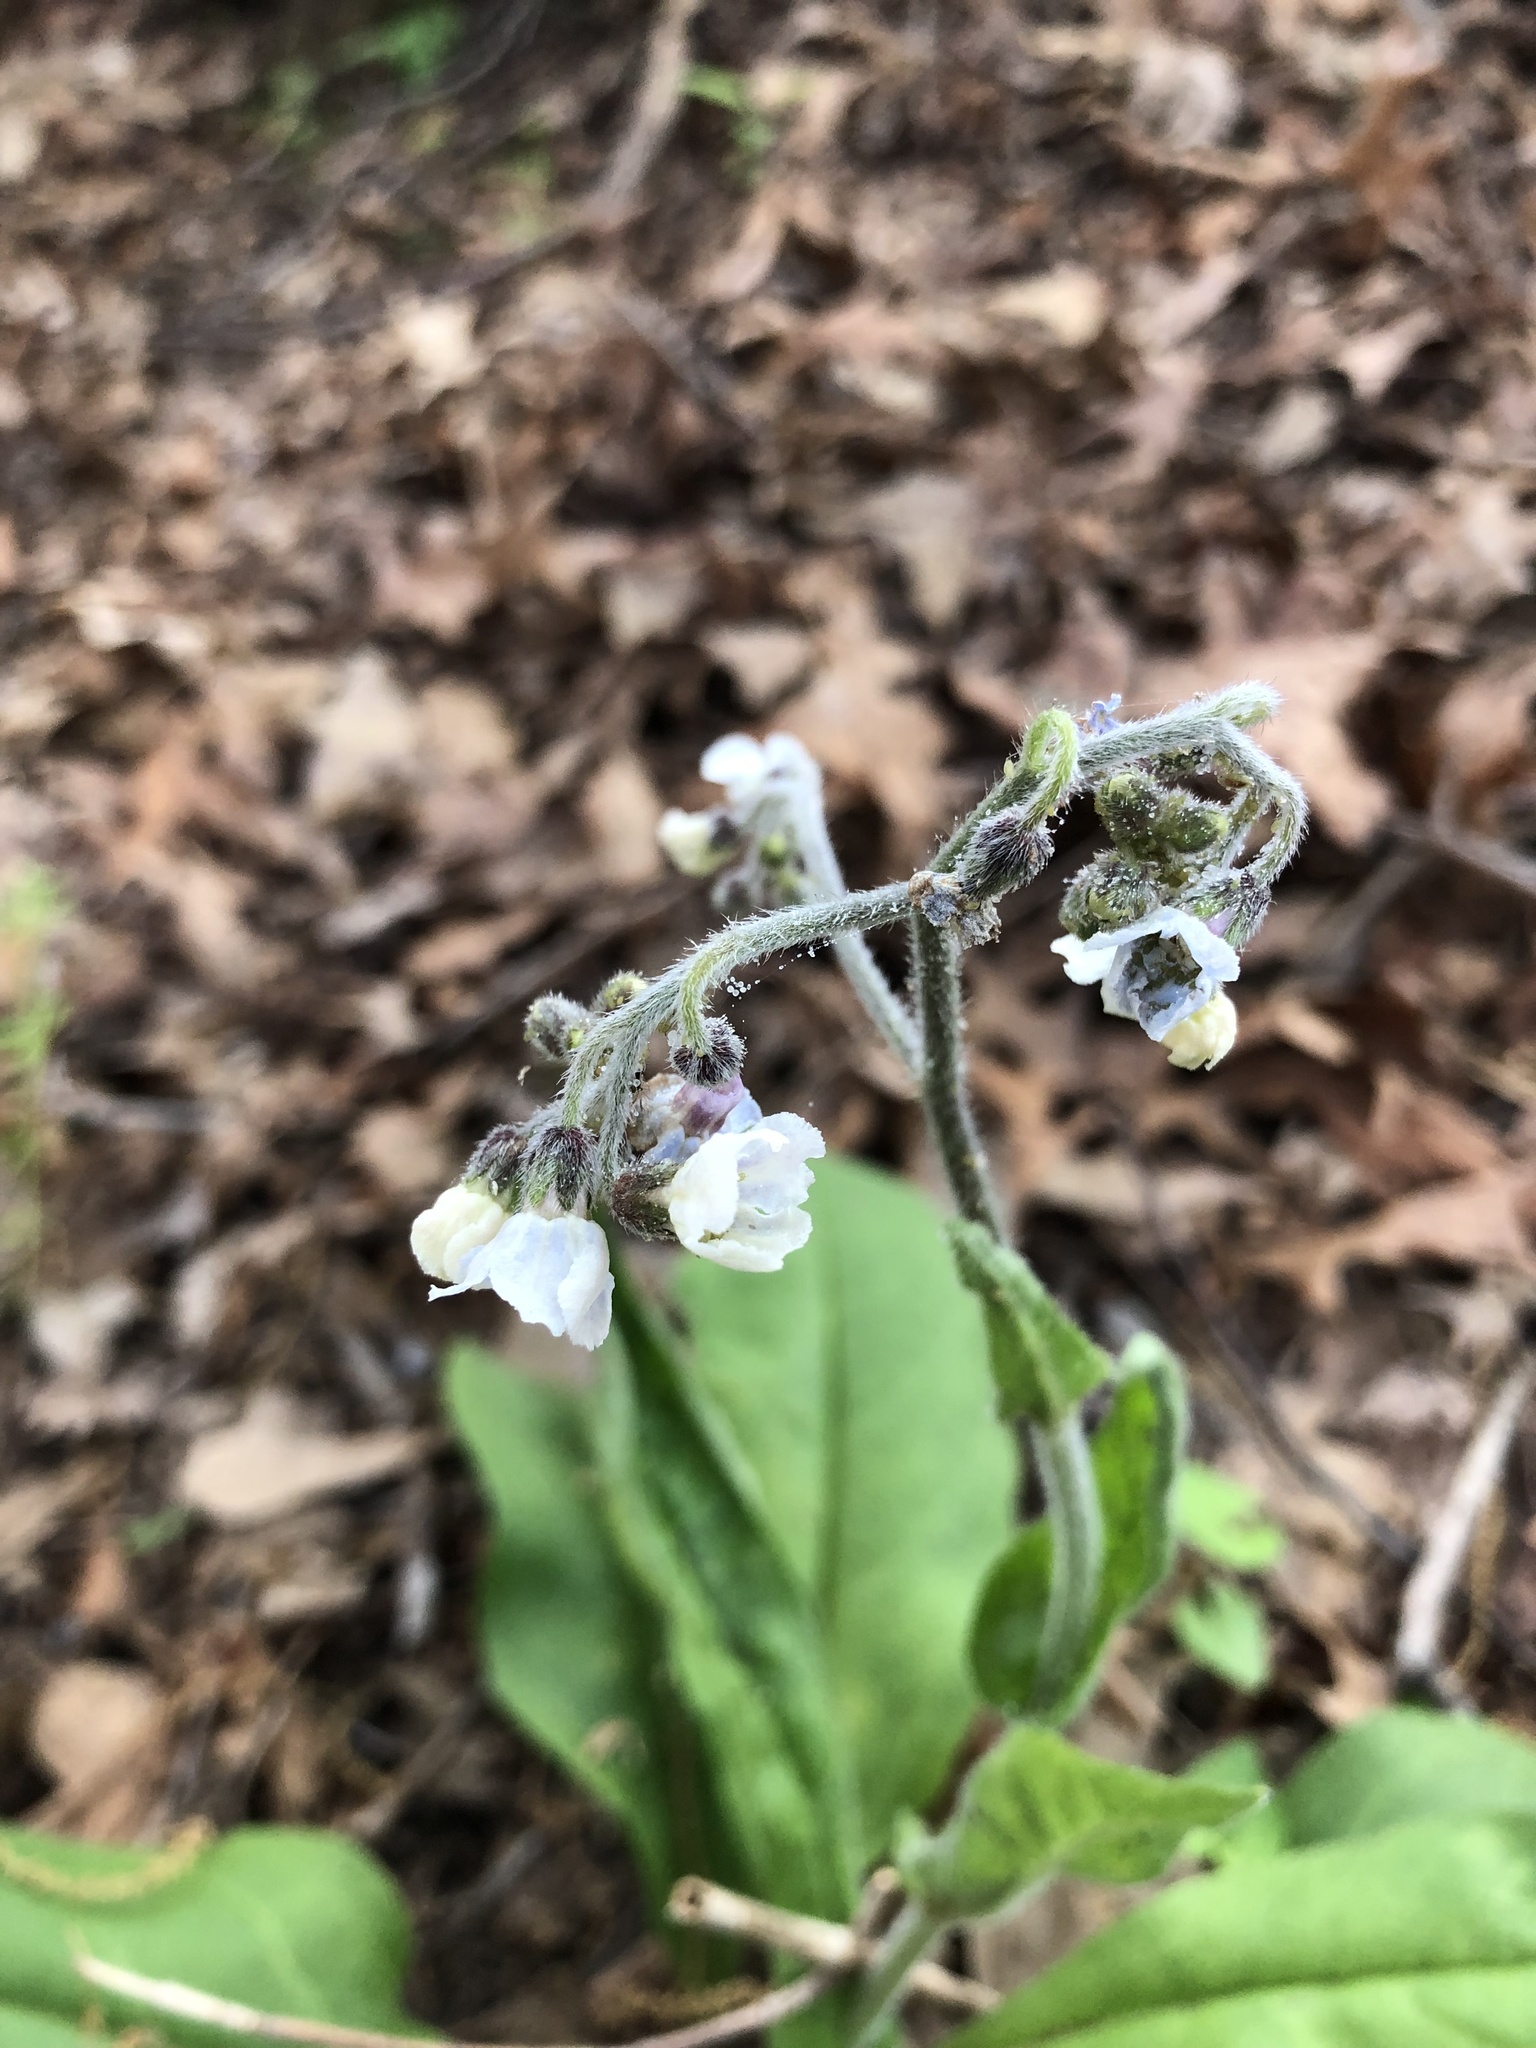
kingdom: Plantae
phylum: Tracheophyta
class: Magnoliopsida
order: Boraginales
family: Boraginaceae
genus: Andersonglossum
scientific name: Andersonglossum virginianum
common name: Wild comfrey
